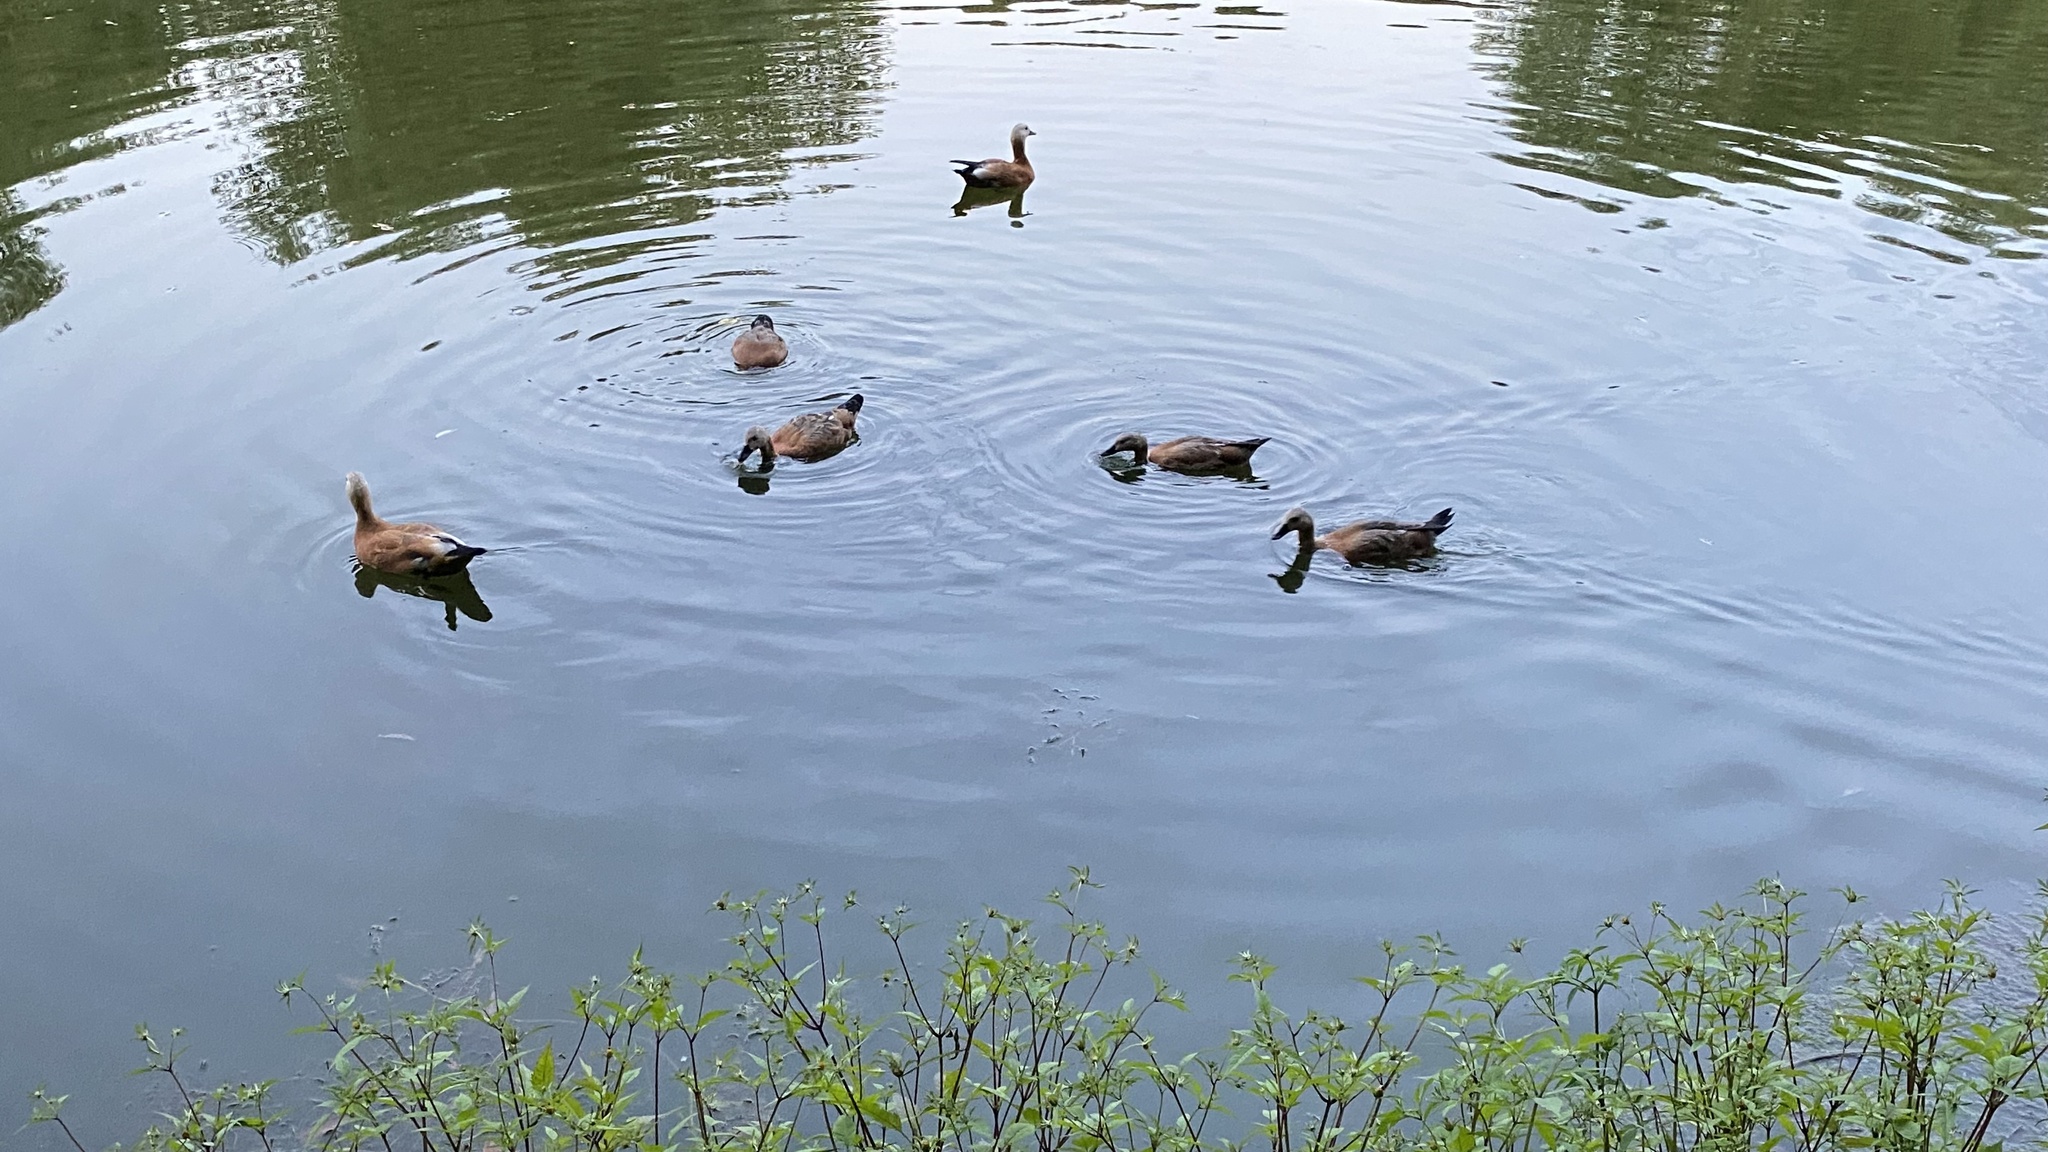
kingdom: Animalia
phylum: Chordata
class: Aves
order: Anseriformes
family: Anatidae
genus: Tadorna
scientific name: Tadorna ferruginea
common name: Ruddy shelduck
